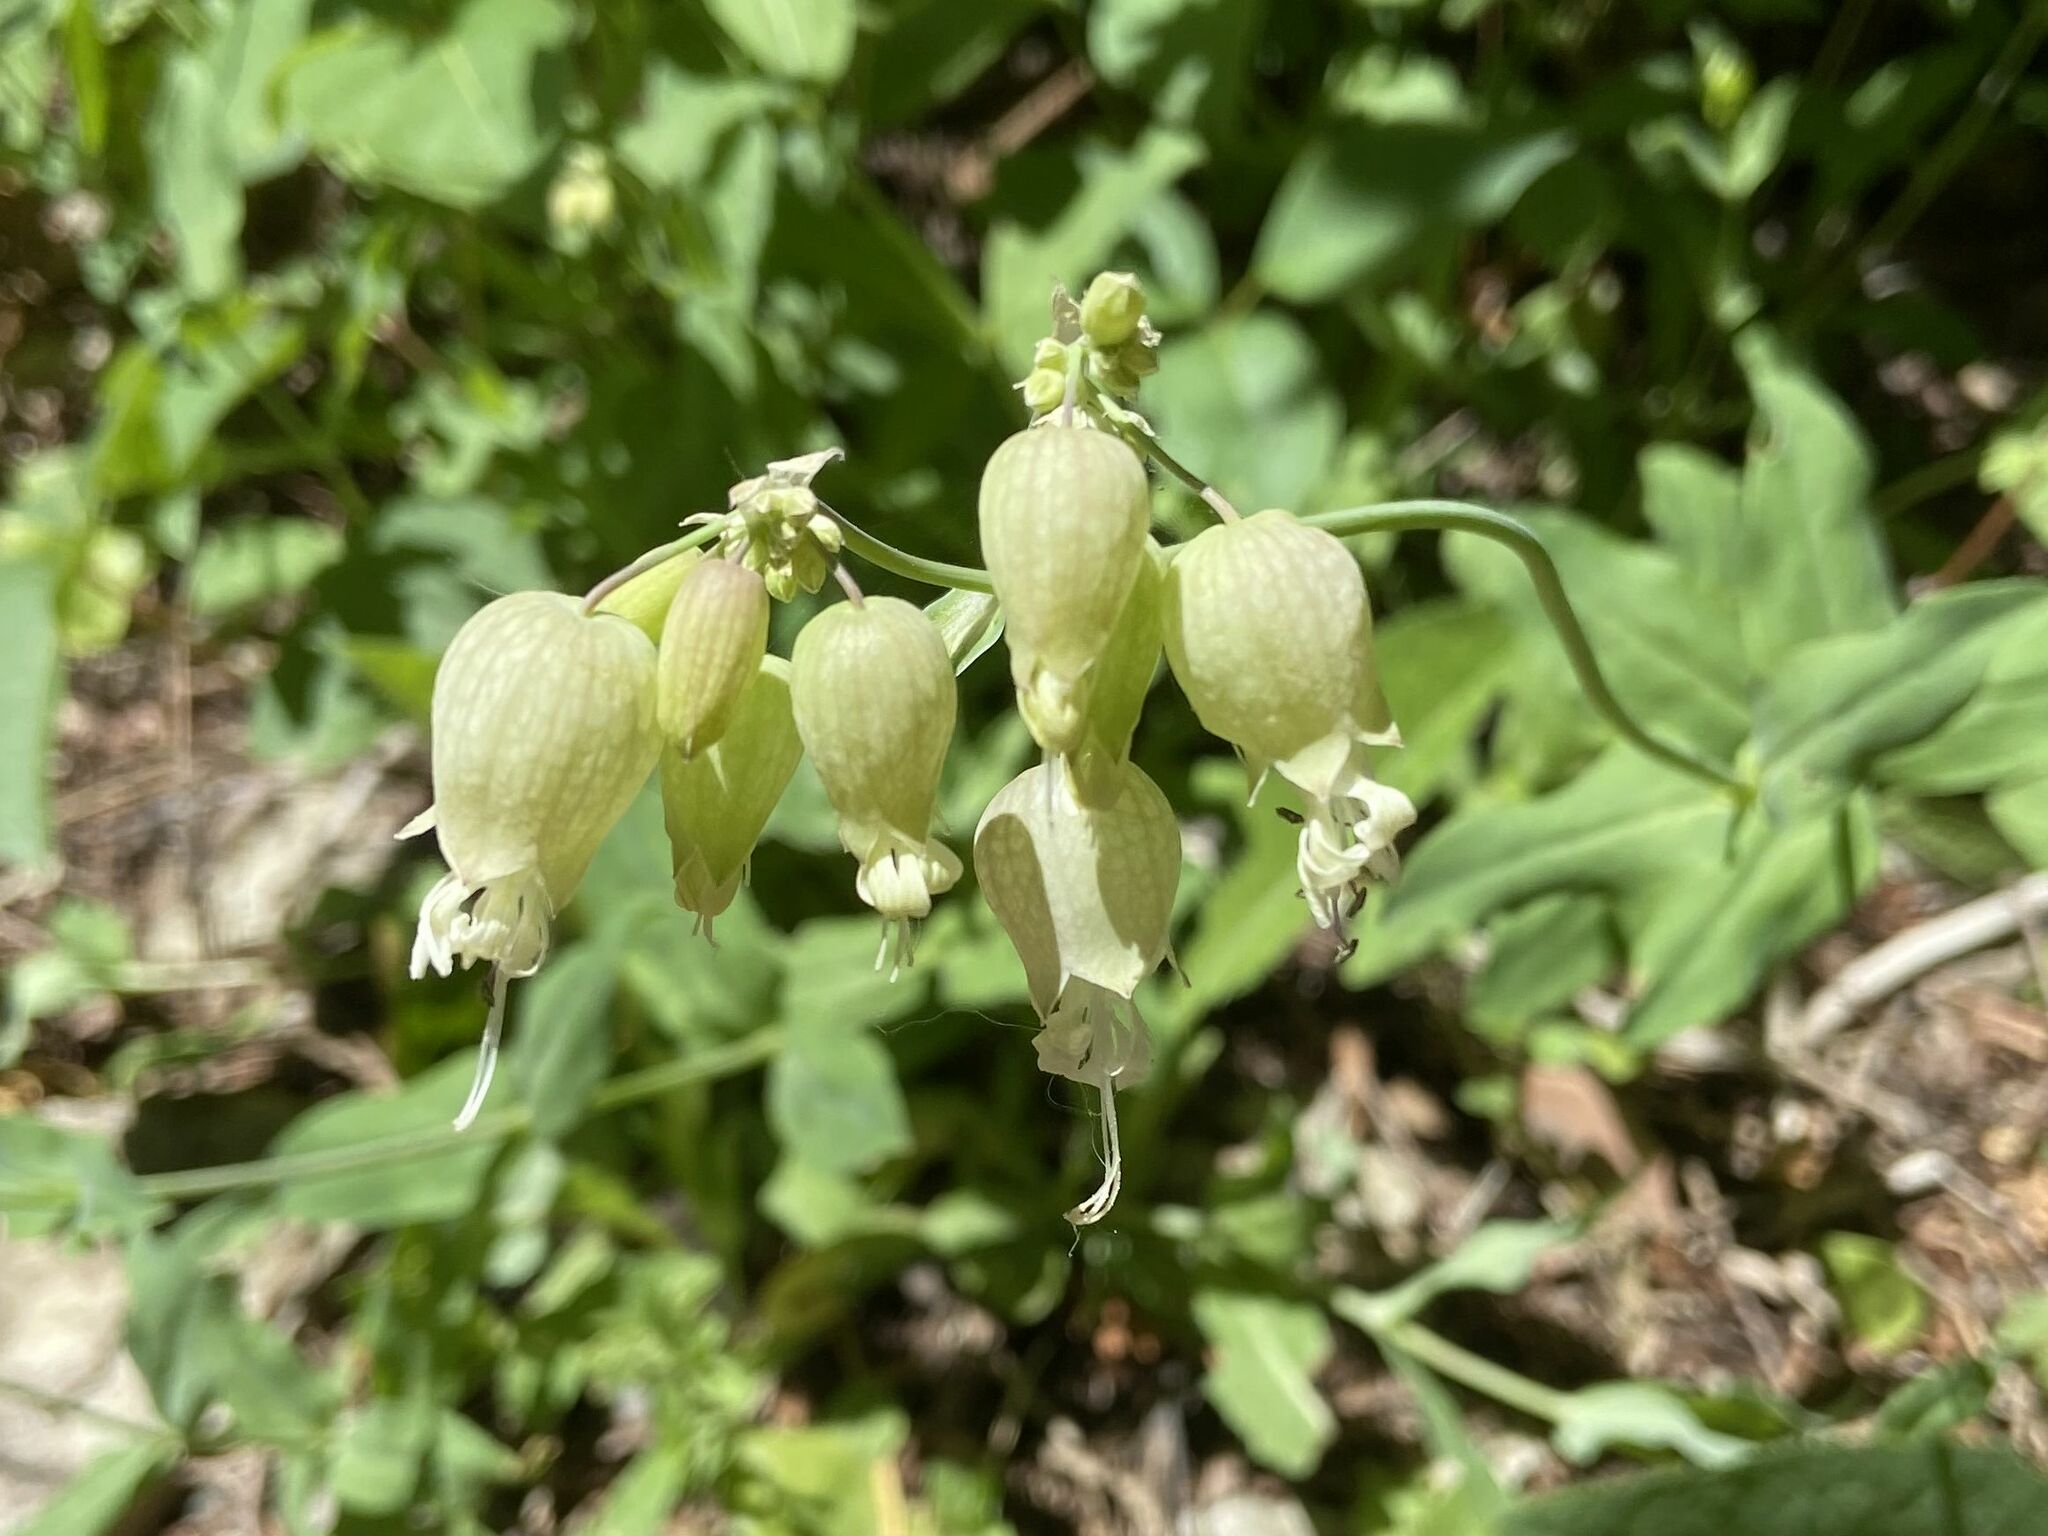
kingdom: Plantae
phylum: Tracheophyta
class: Magnoliopsida
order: Caryophyllales
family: Caryophyllaceae
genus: Silene
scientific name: Silene vulgaris
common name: Bladder campion
